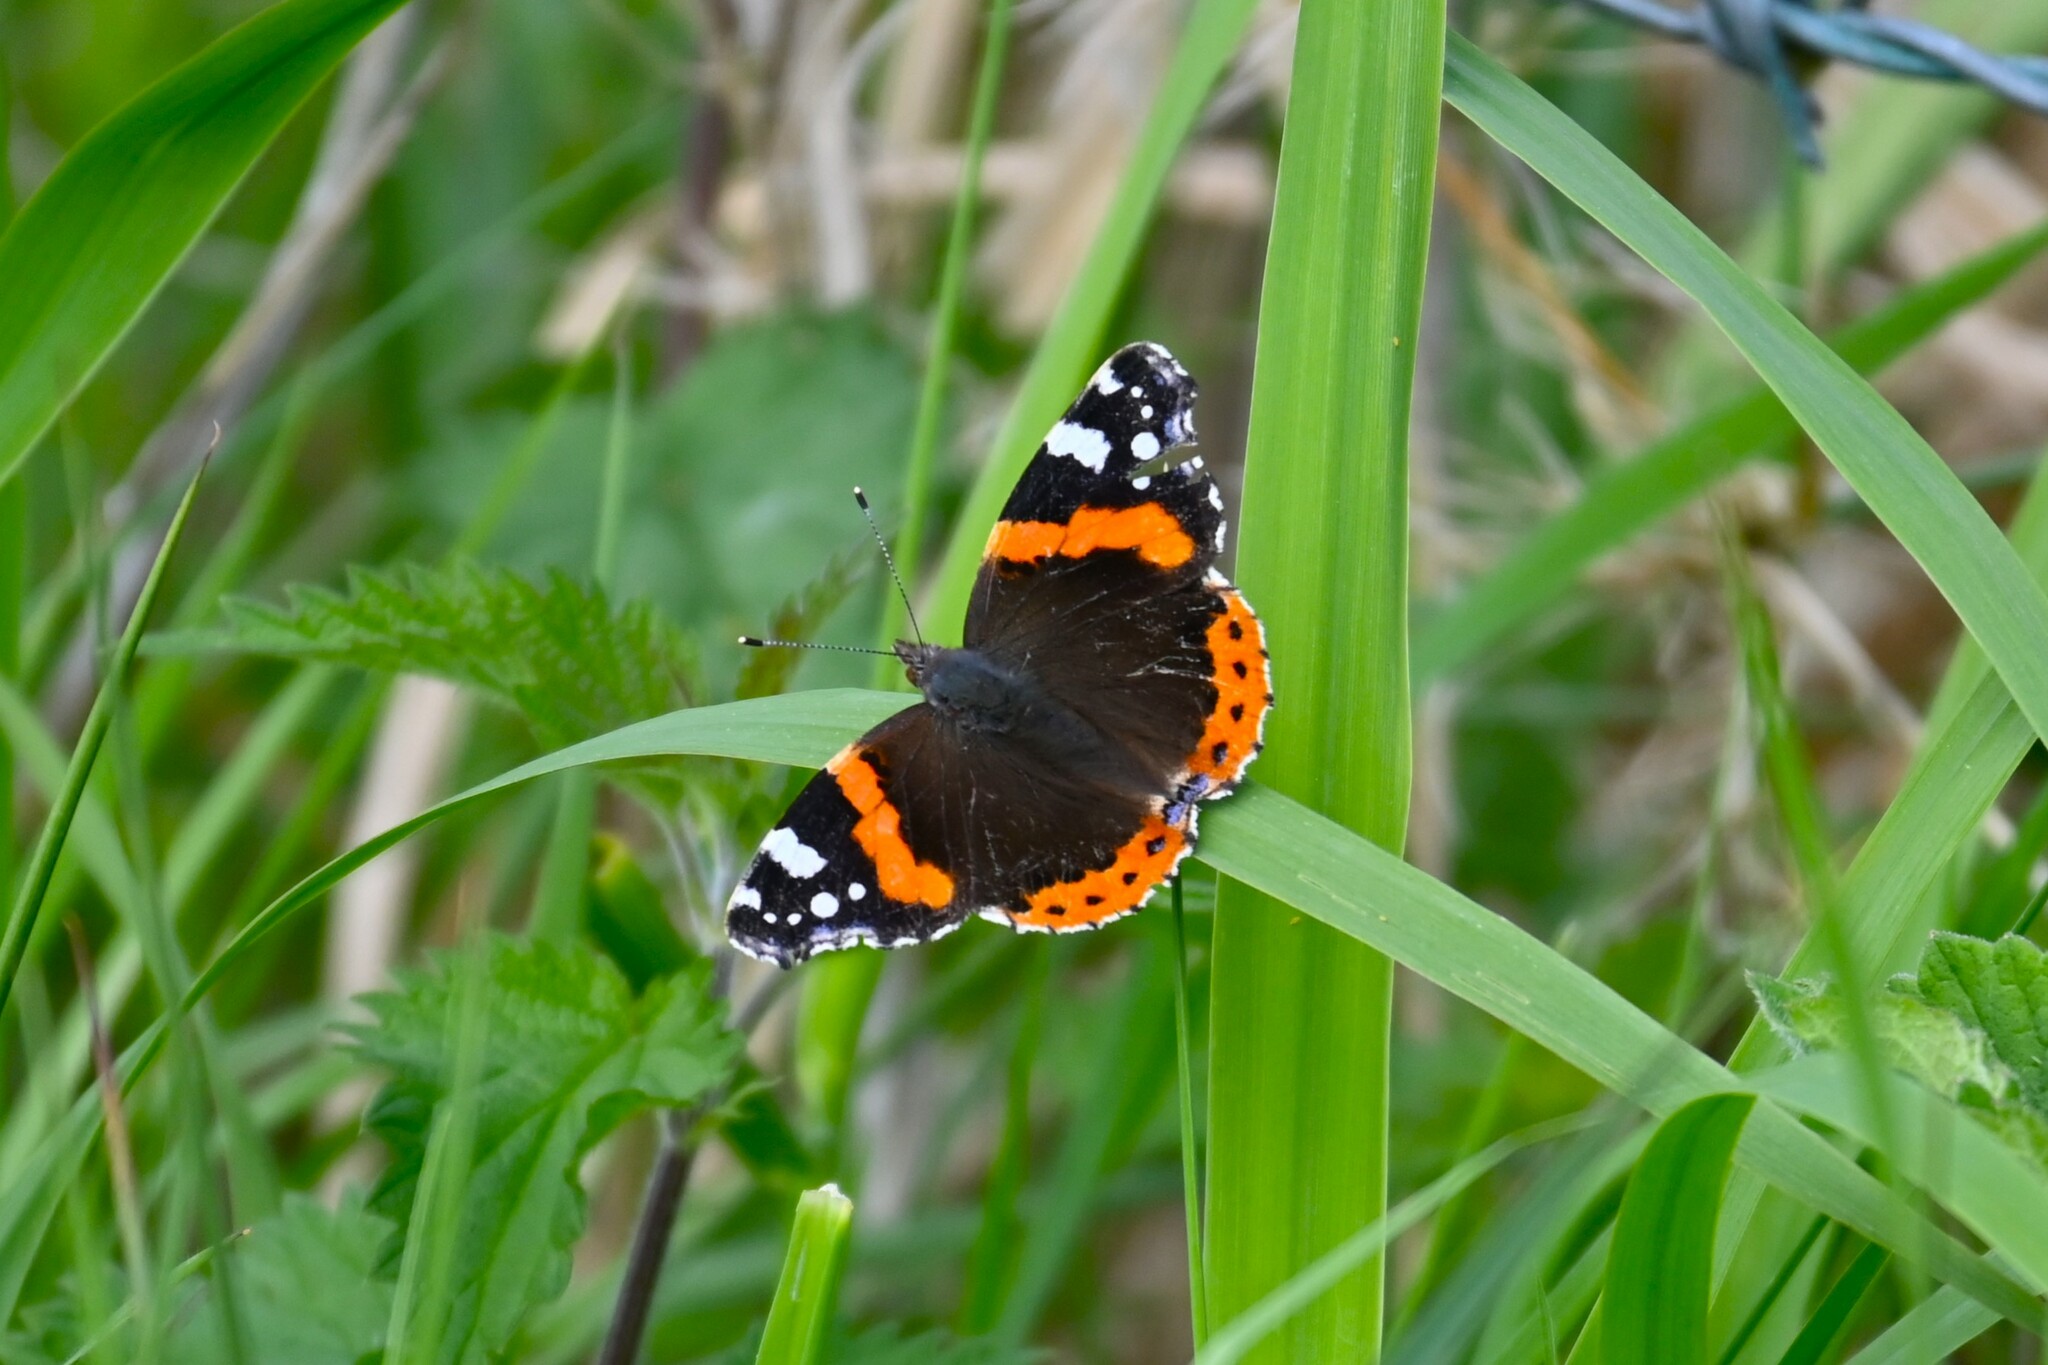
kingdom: Animalia
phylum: Arthropoda
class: Insecta
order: Lepidoptera
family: Nymphalidae
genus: Vanessa
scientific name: Vanessa atalanta
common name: Red admiral
